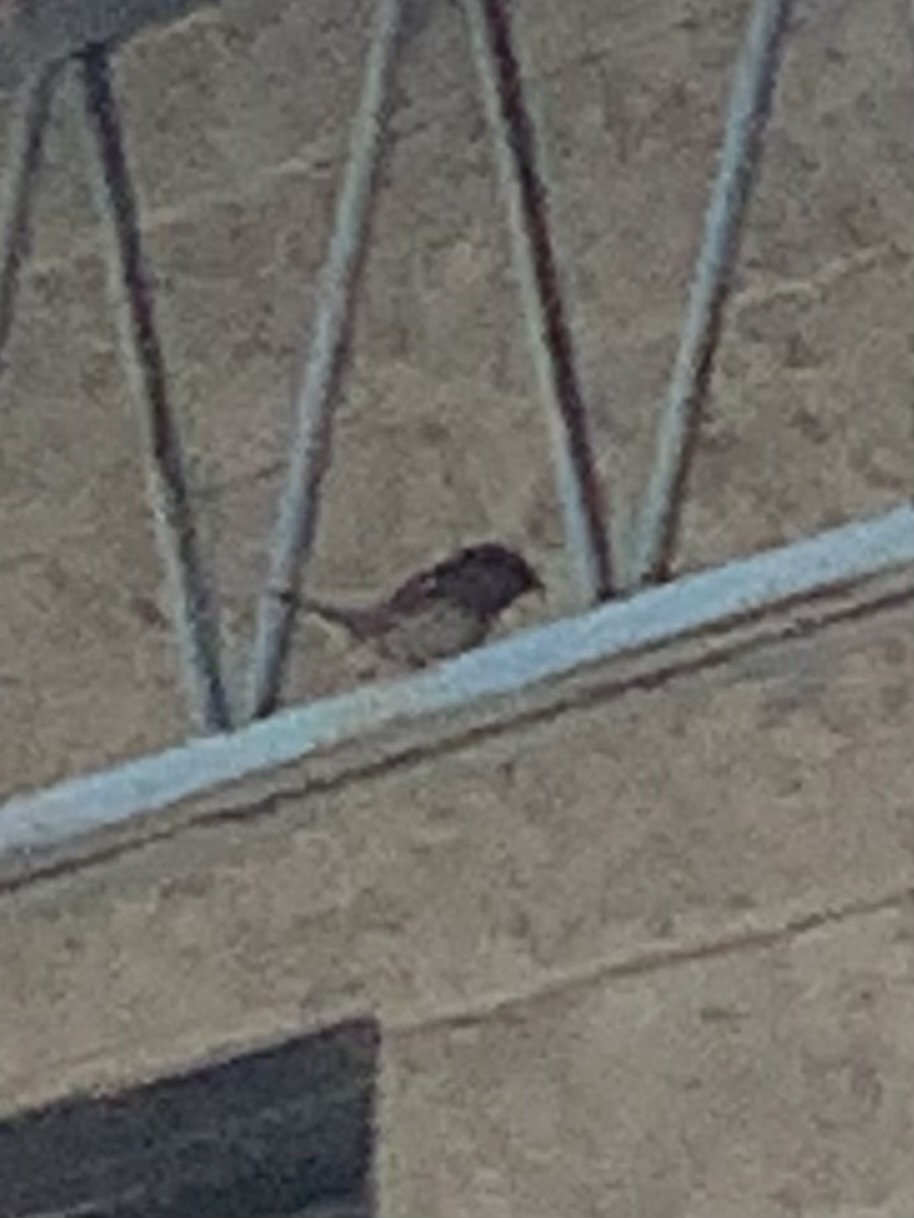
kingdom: Animalia
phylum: Chordata
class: Aves
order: Passeriformes
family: Passeridae
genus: Passer
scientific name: Passer domesticus
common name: House sparrow
